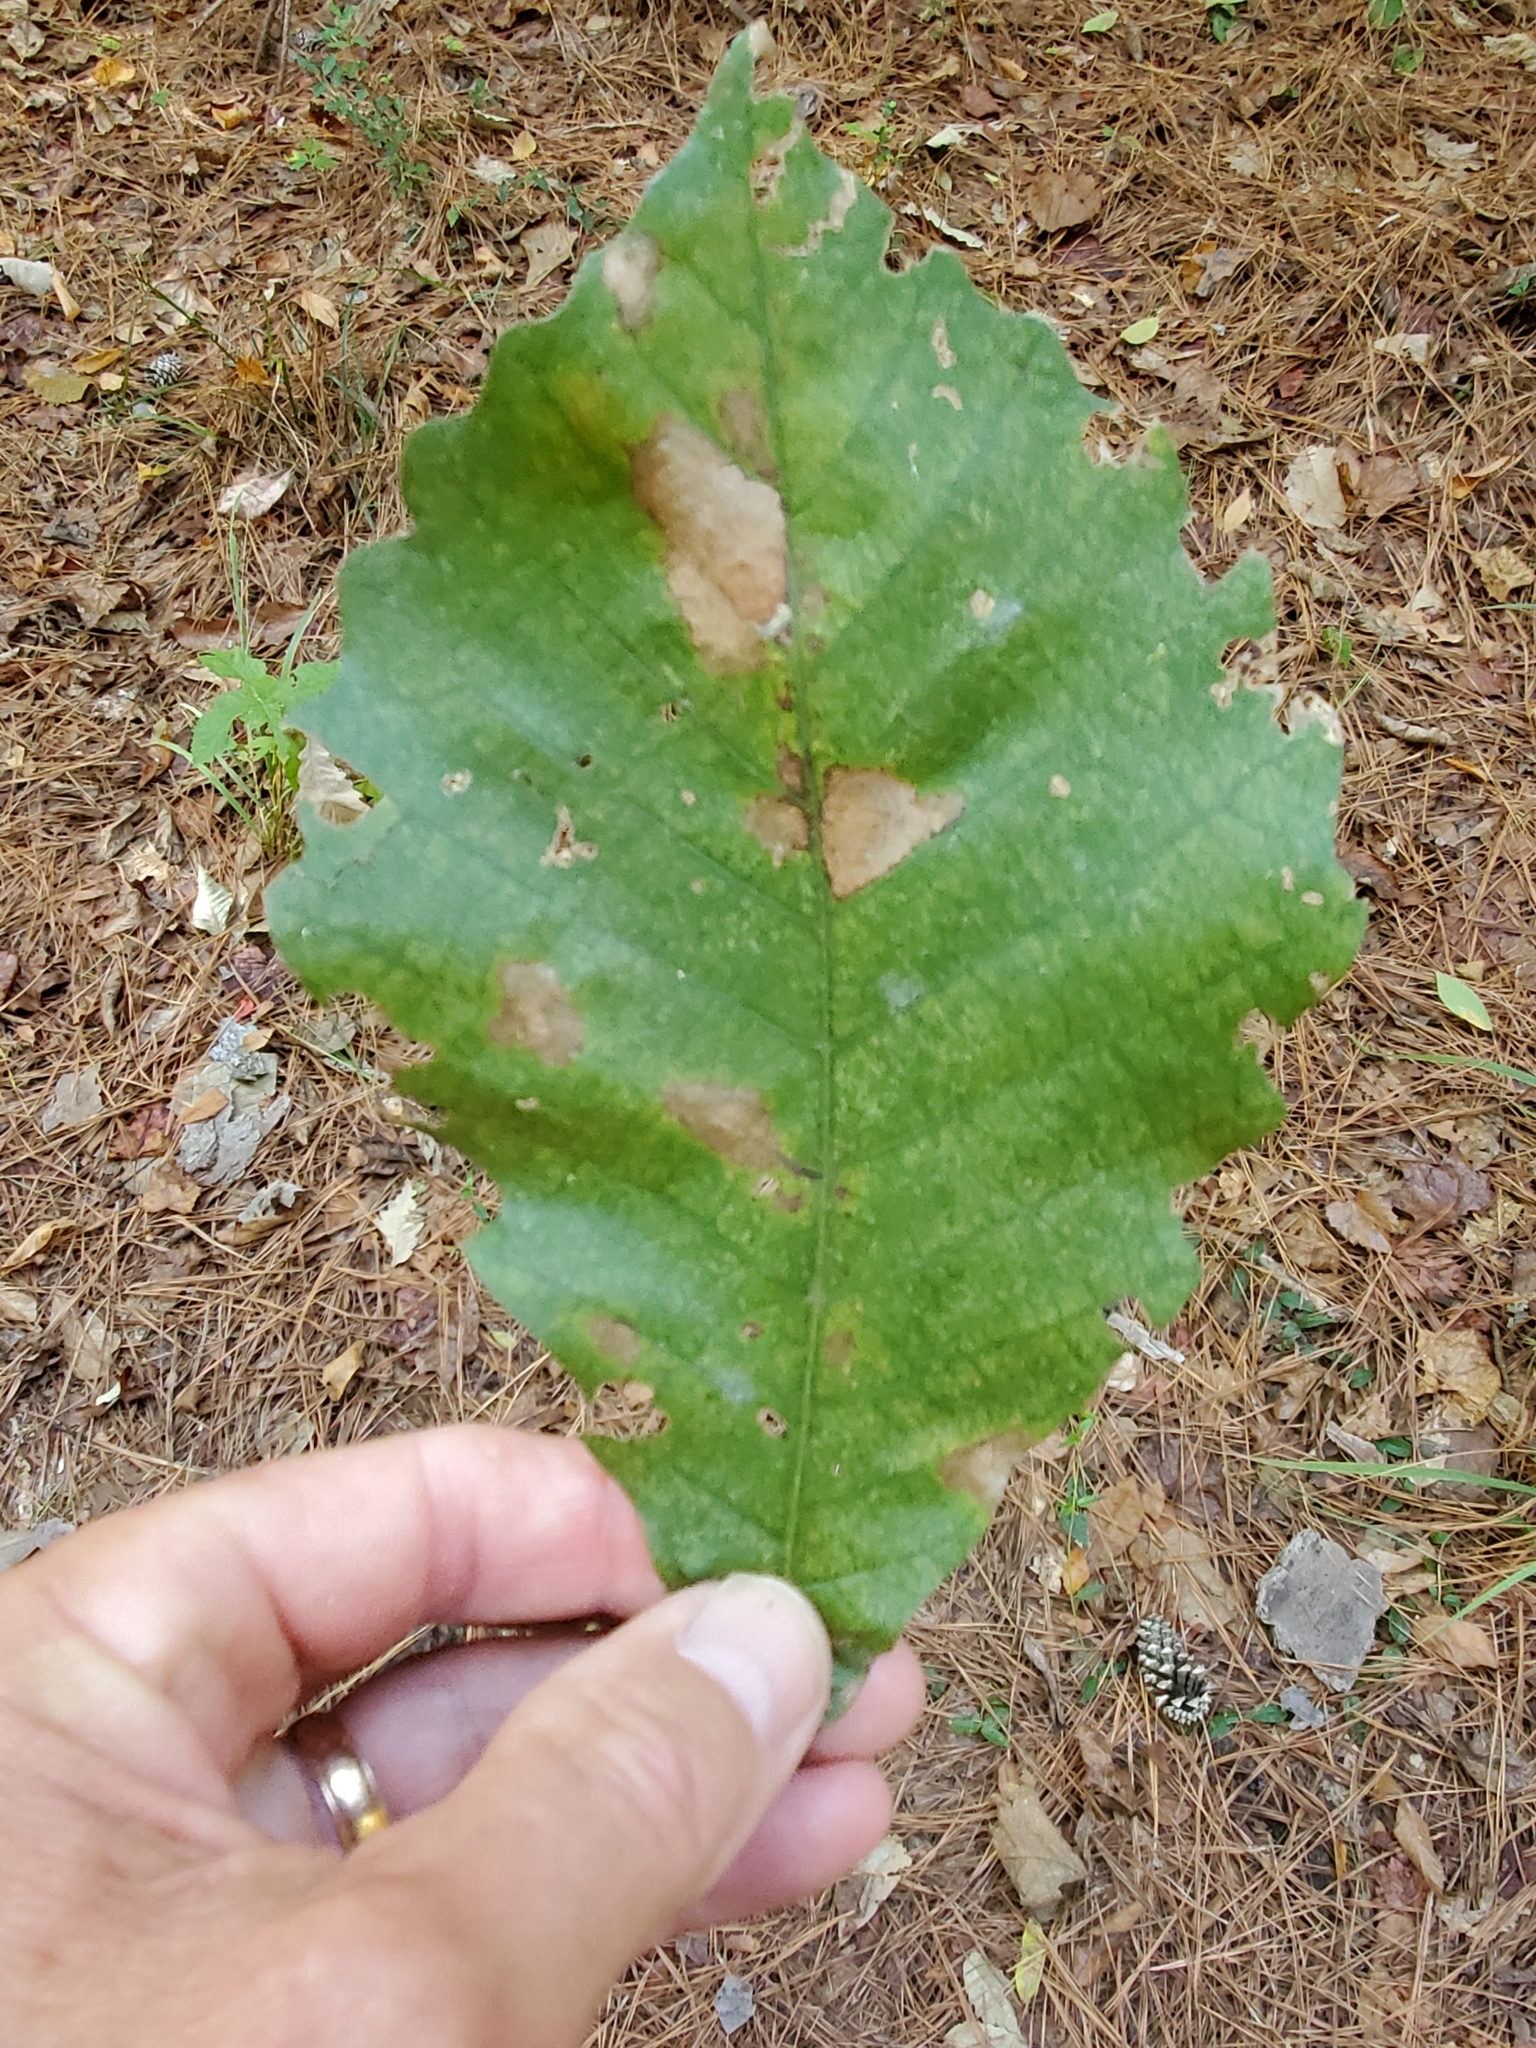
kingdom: Plantae
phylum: Tracheophyta
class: Magnoliopsida
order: Fagales
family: Fagaceae
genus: Quercus
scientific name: Quercus michauxii
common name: Swamp chestnut oak
